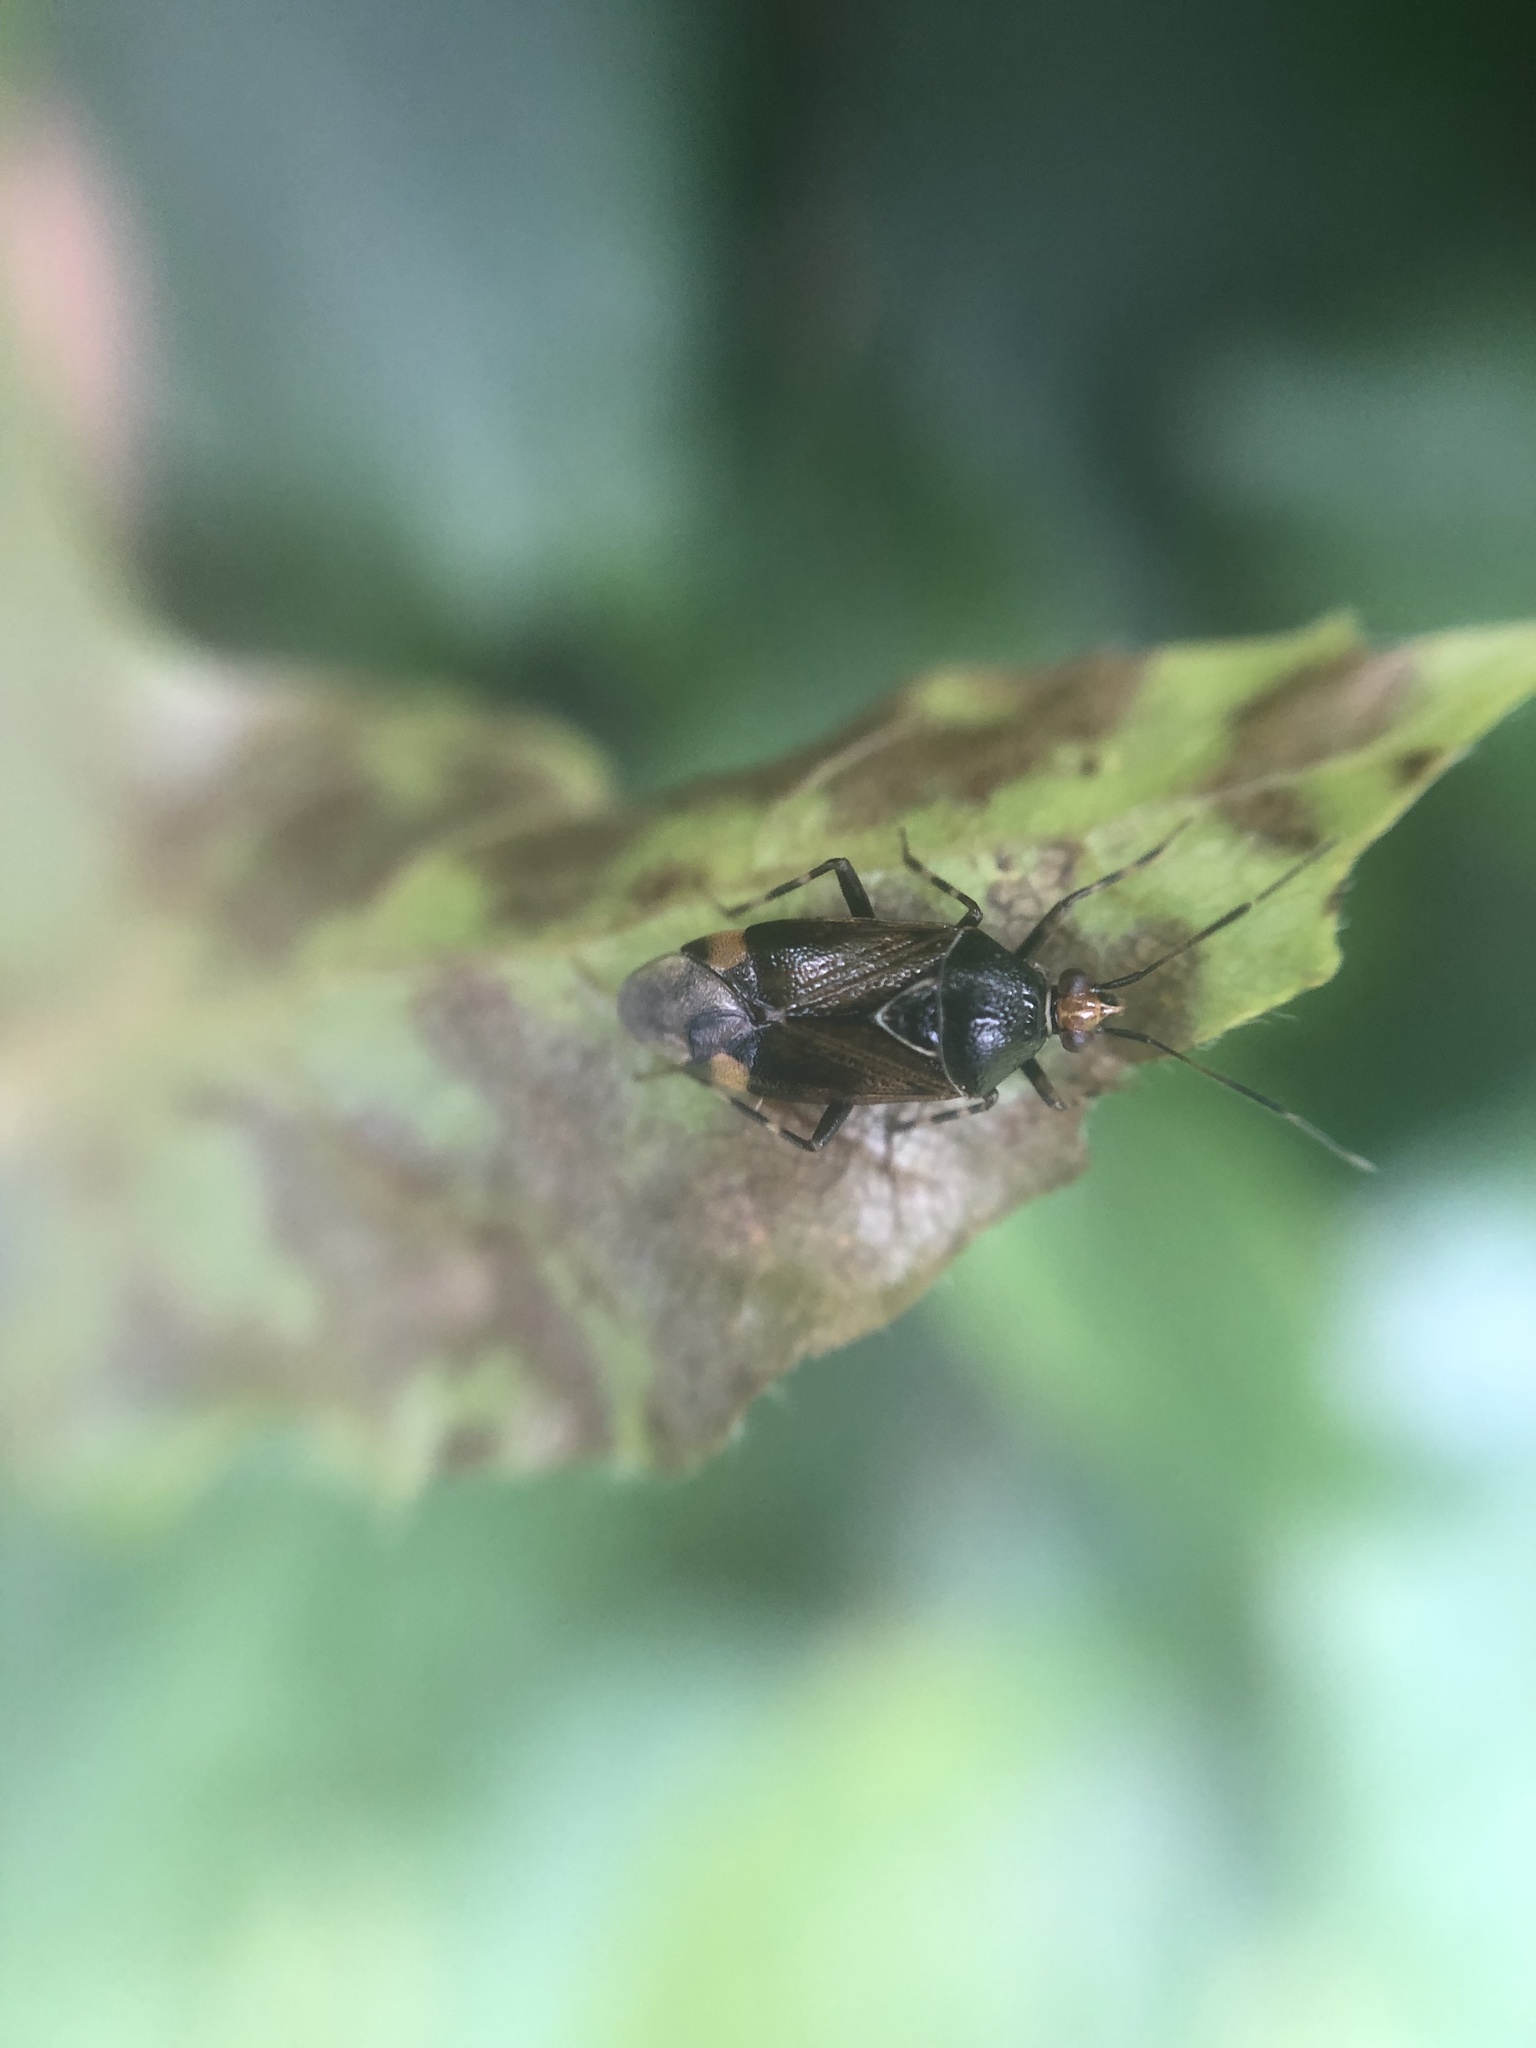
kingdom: Animalia
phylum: Arthropoda
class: Insecta
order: Hemiptera
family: Miridae
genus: Deraeocoris
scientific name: Deraeocoris flavilinea
